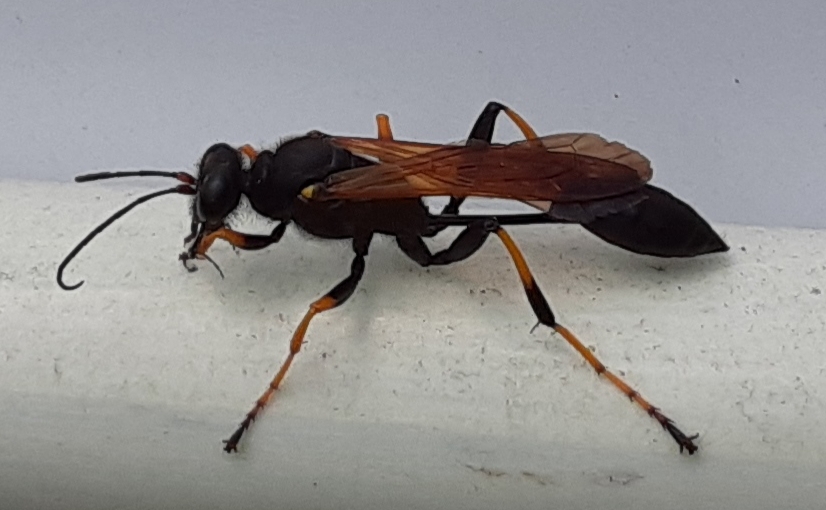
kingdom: Animalia
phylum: Arthropoda
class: Insecta
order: Hymenoptera
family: Sphecidae
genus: Sceliphron
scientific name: Sceliphron caementarium
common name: Mud dauber
